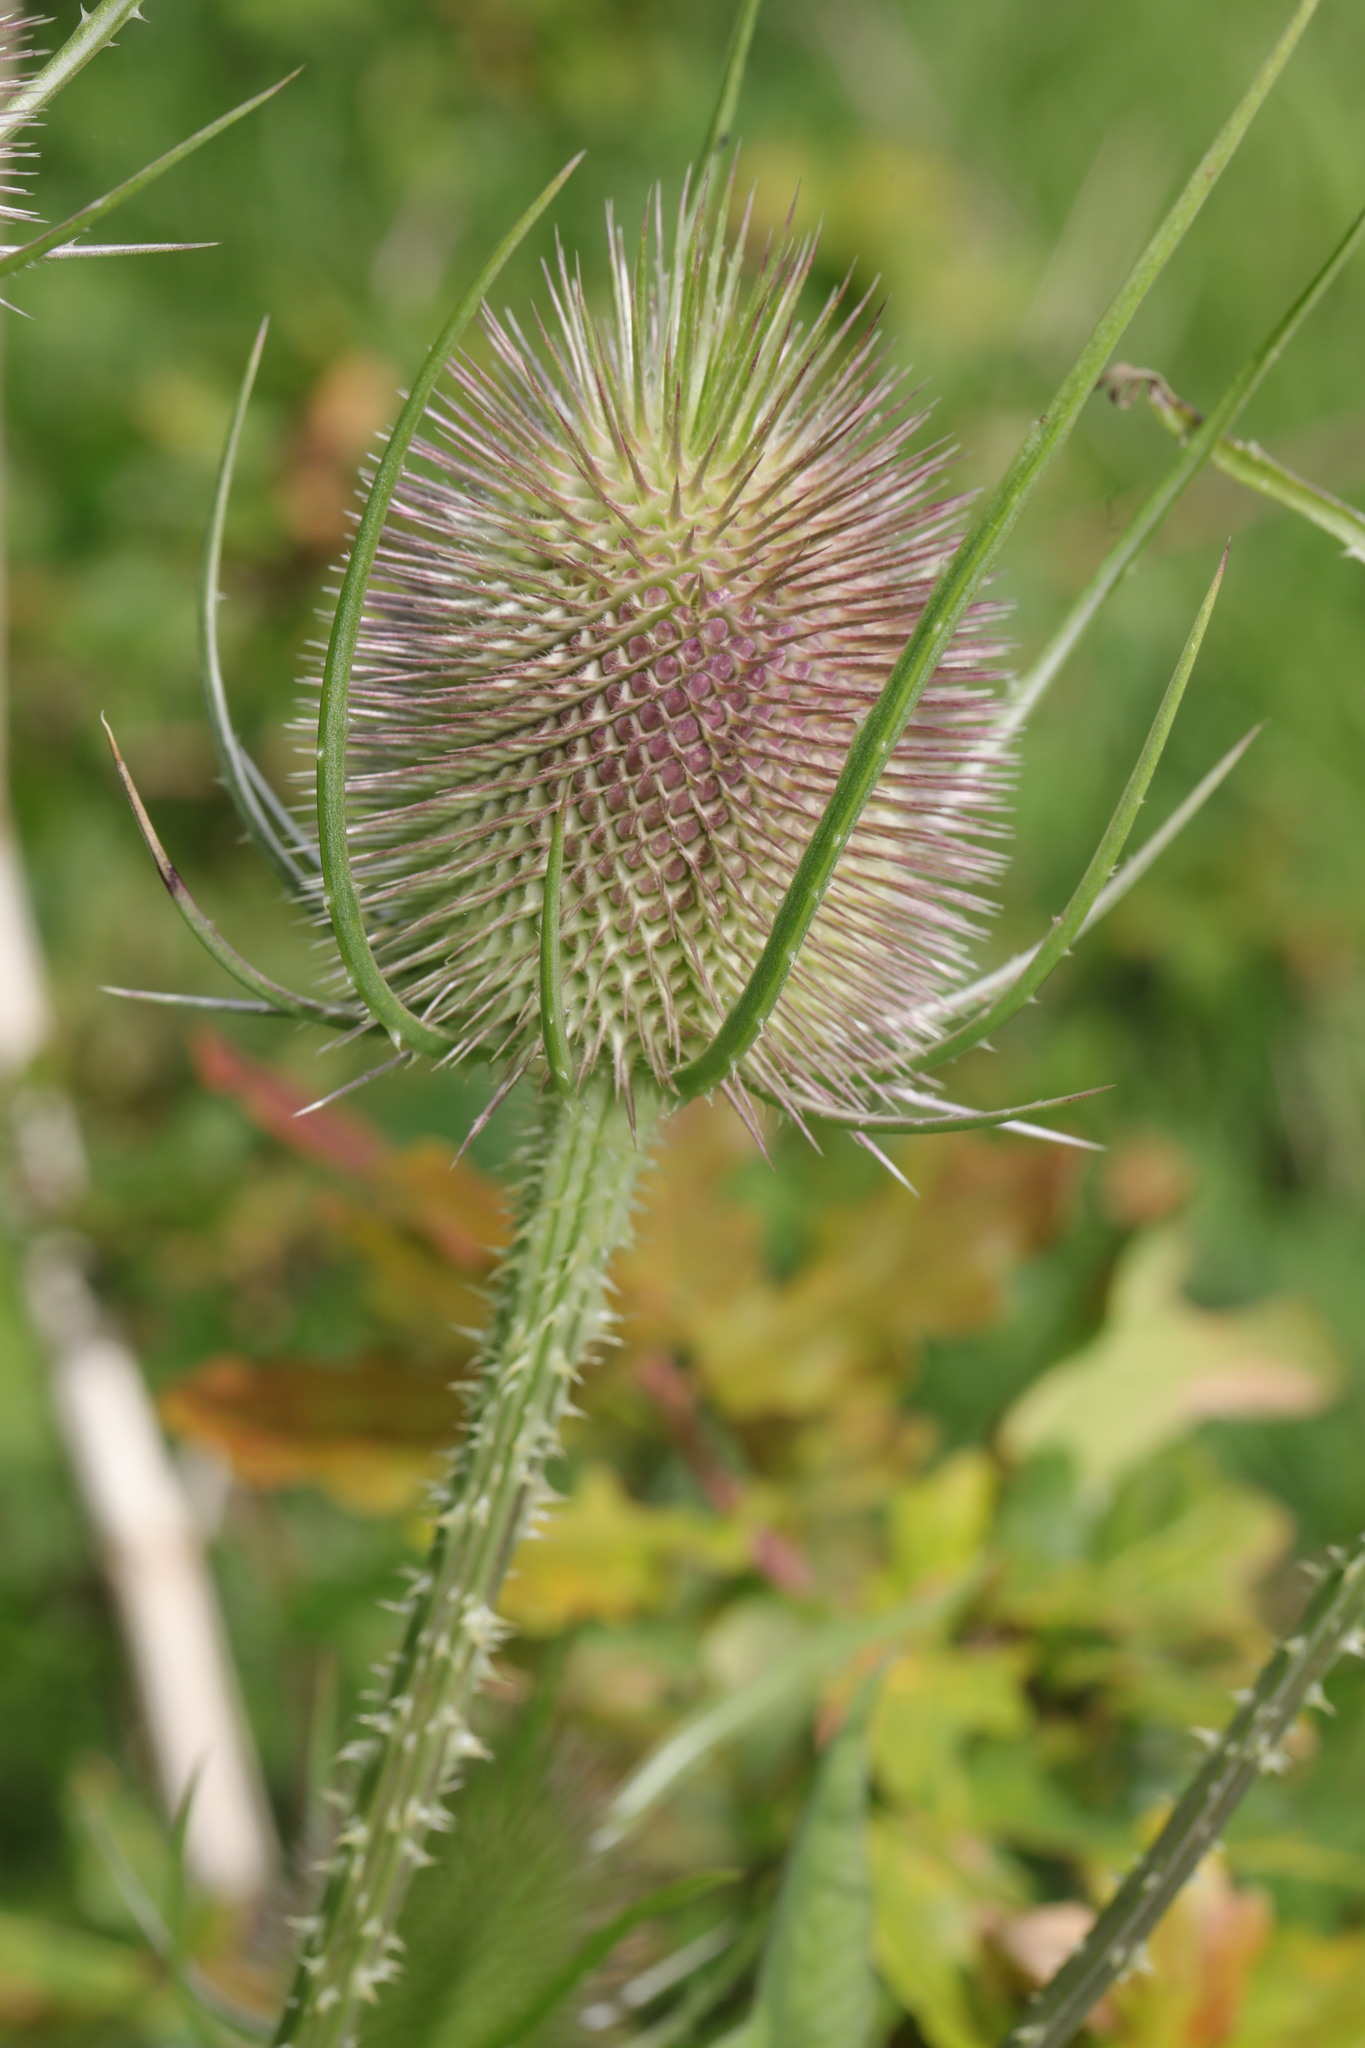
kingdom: Plantae
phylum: Tracheophyta
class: Magnoliopsida
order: Dipsacales
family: Caprifoliaceae
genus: Dipsacus
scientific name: Dipsacus fullonum
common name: Teasel
